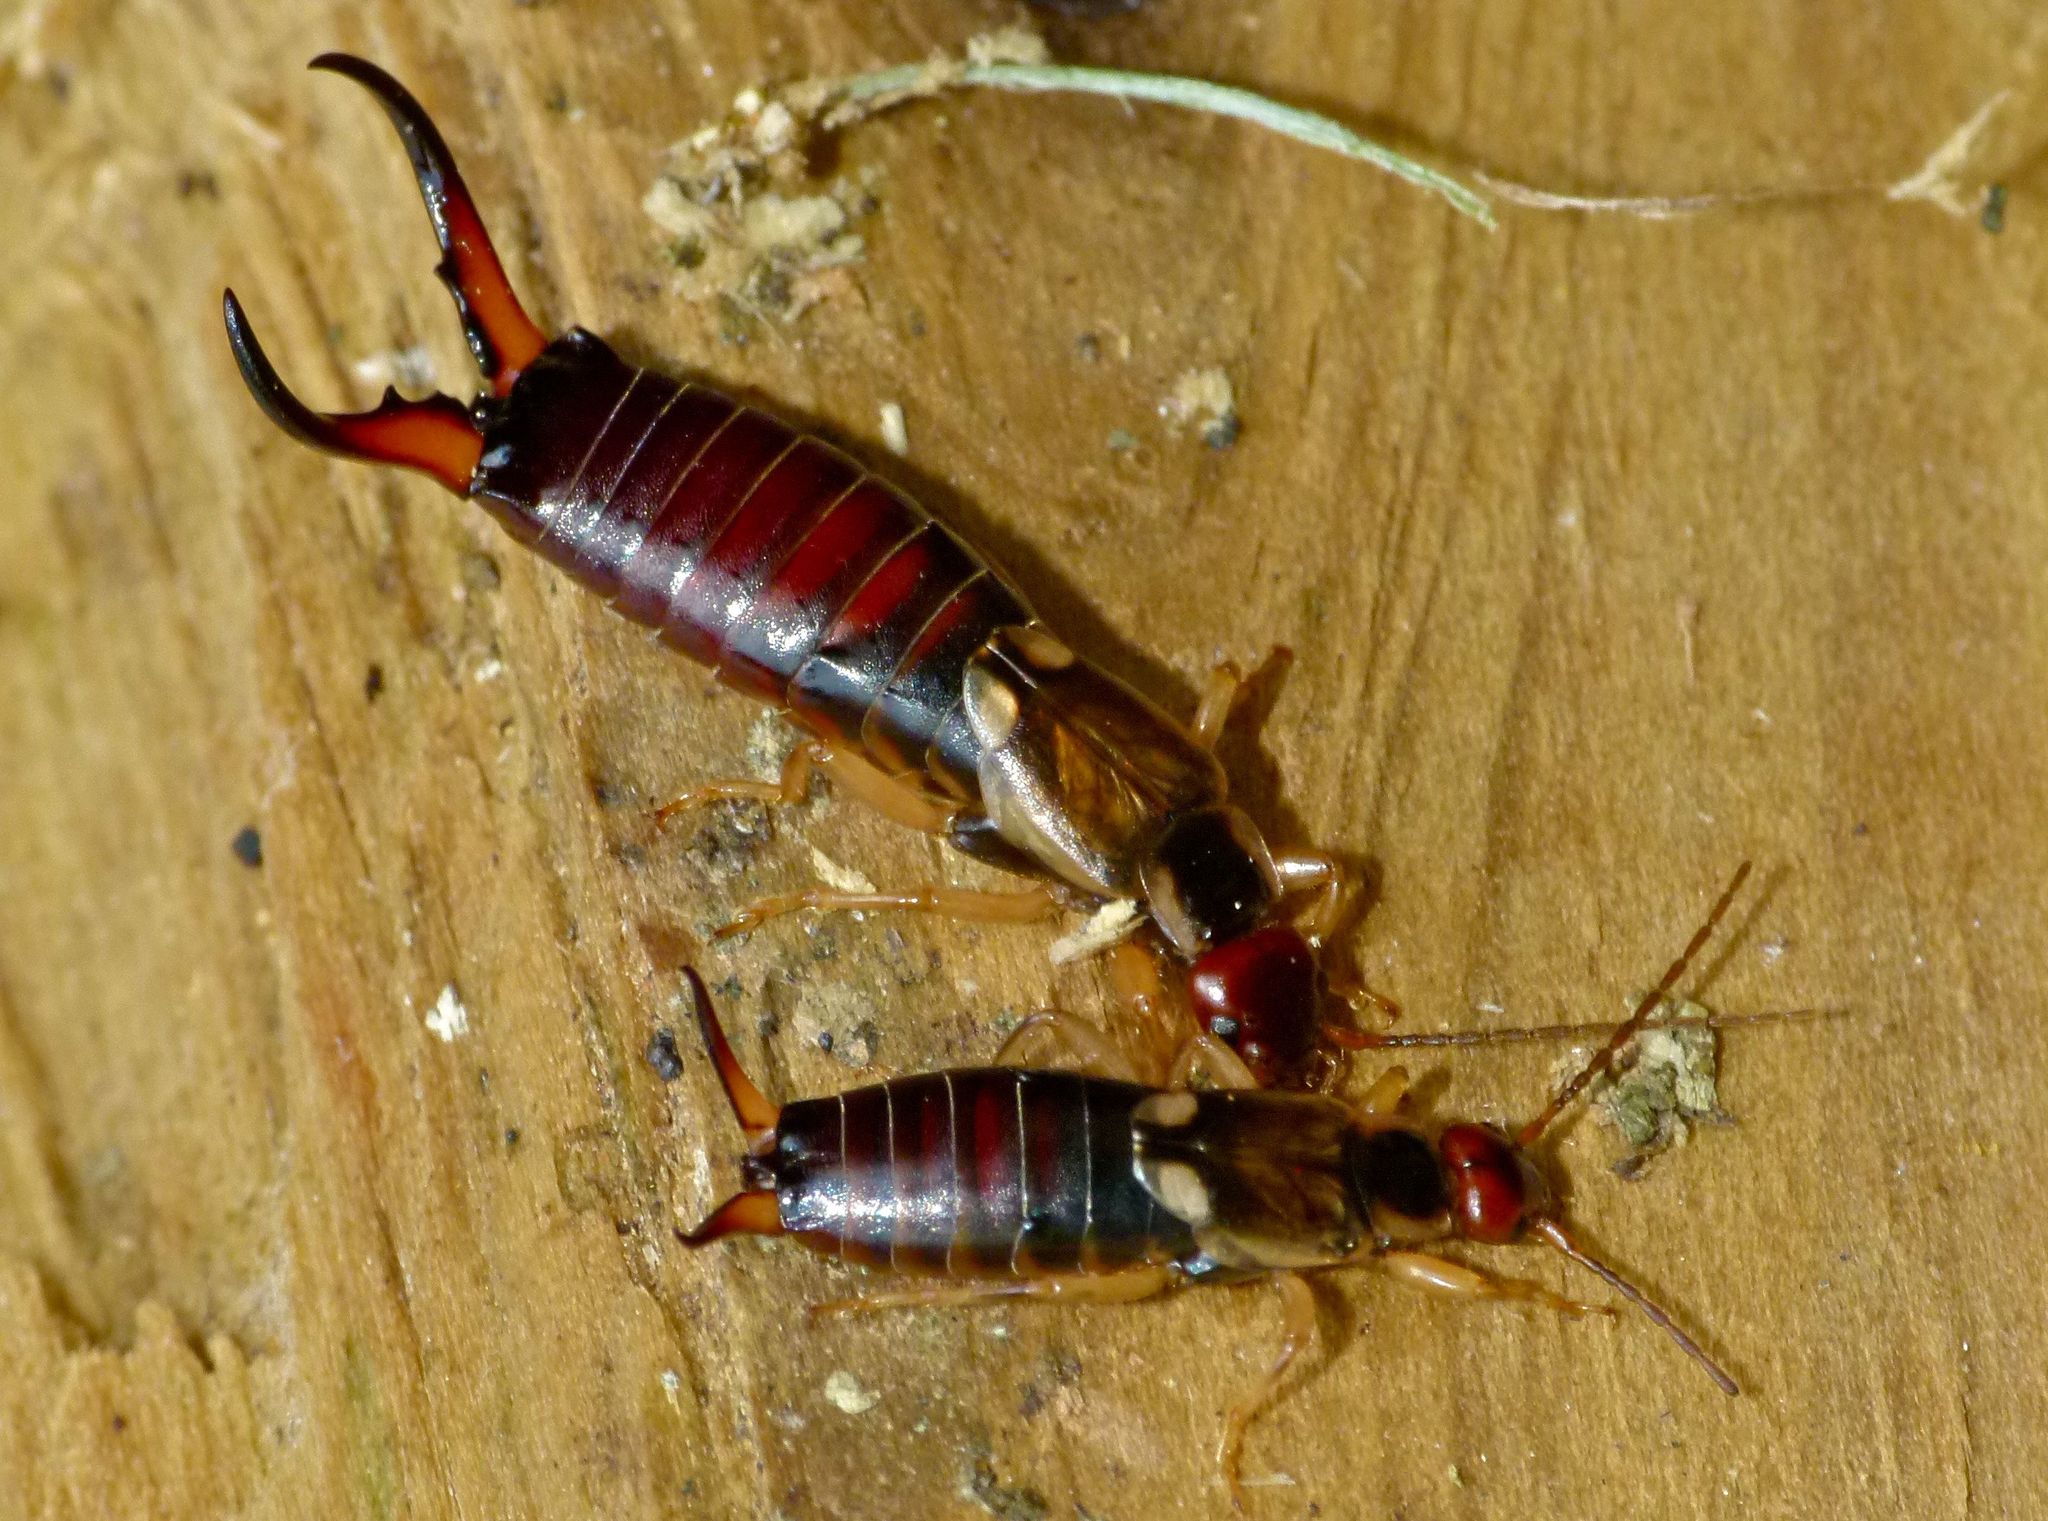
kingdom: Animalia
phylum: Arthropoda
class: Insecta
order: Dermaptera
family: Forficulidae
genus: Forficula
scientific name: Forficula
